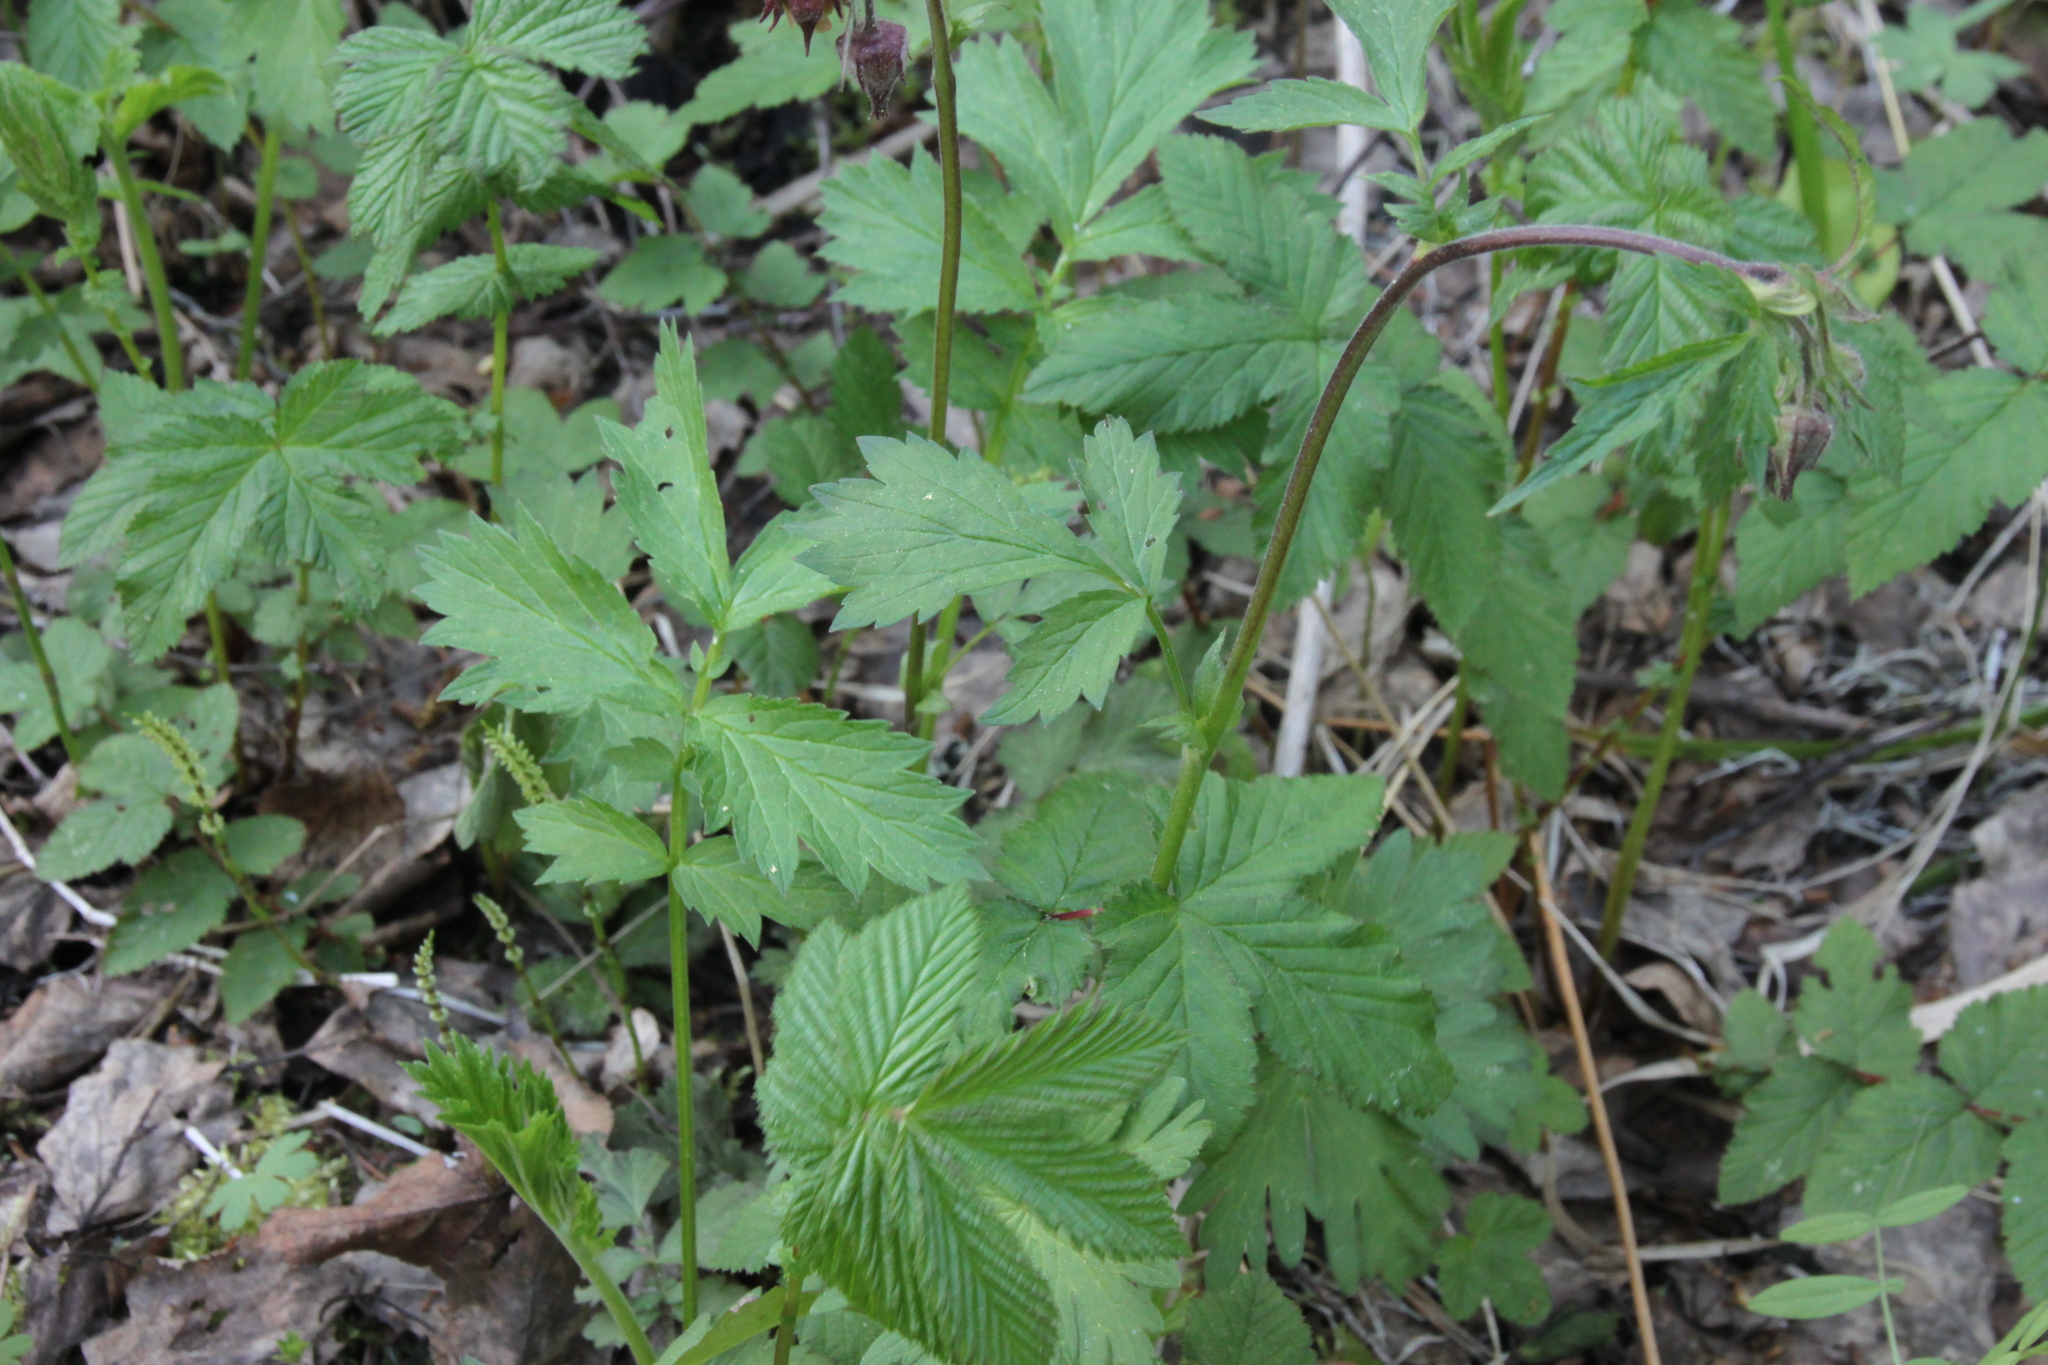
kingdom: Plantae
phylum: Tracheophyta
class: Magnoliopsida
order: Rosales
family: Rosaceae
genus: Geum
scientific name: Geum rivale
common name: Water avens
